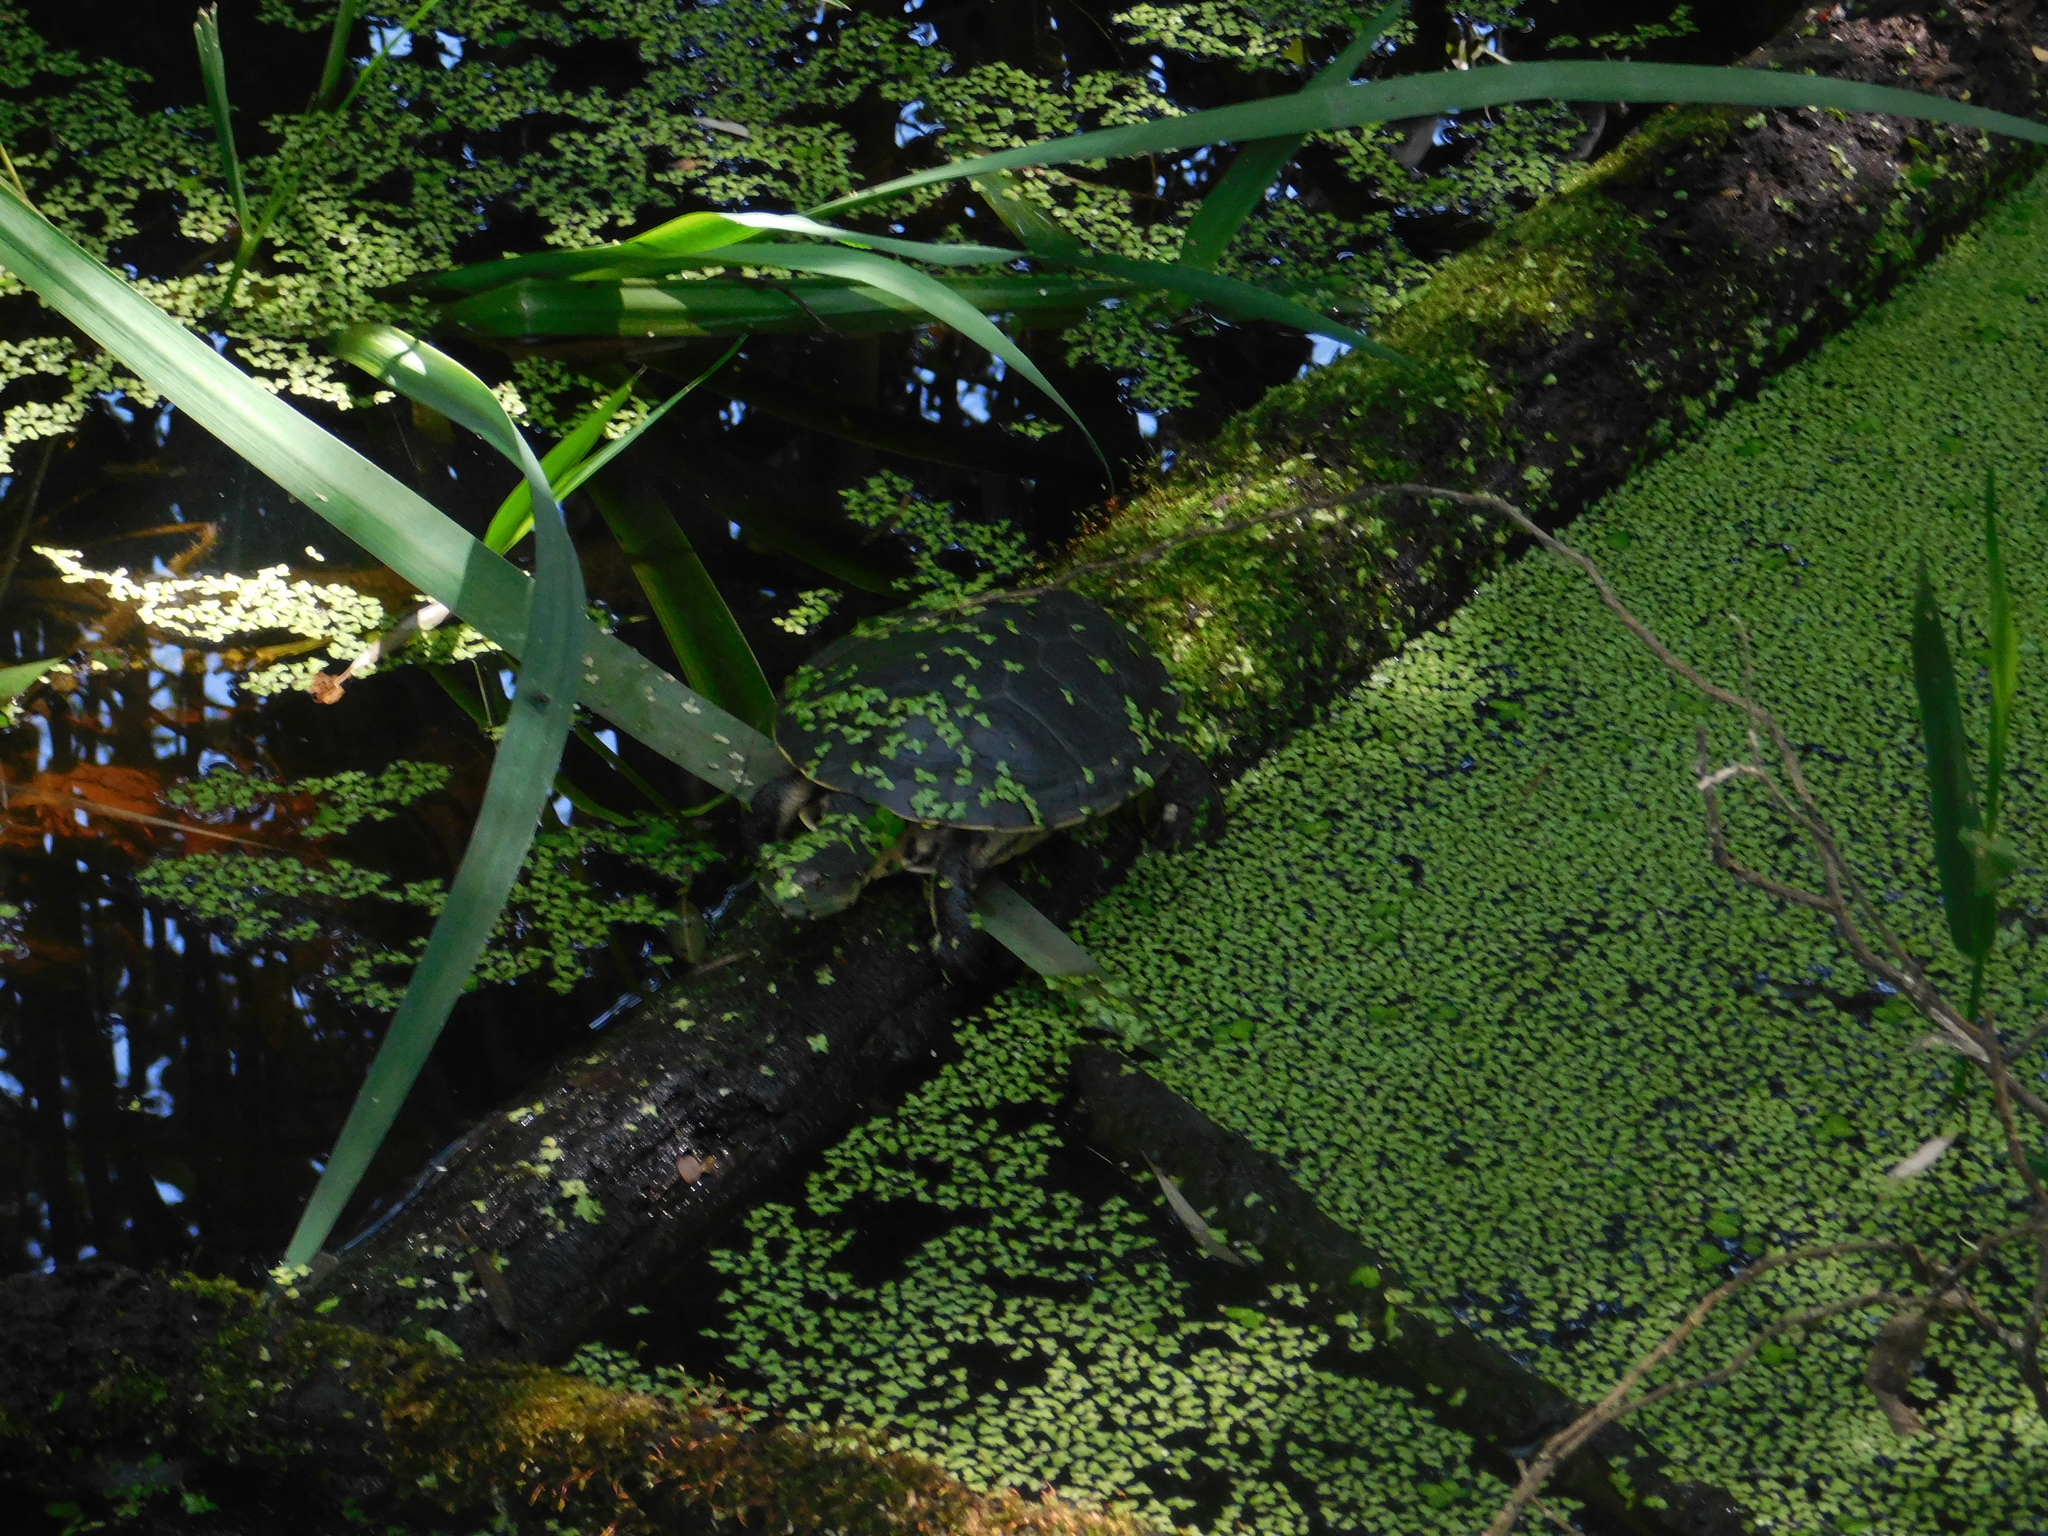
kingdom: Animalia
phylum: Chordata
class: Testudines
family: Chelidae
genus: Phrynops
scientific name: Phrynops hilarii
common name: Side-necked turtle of saint hillaire
